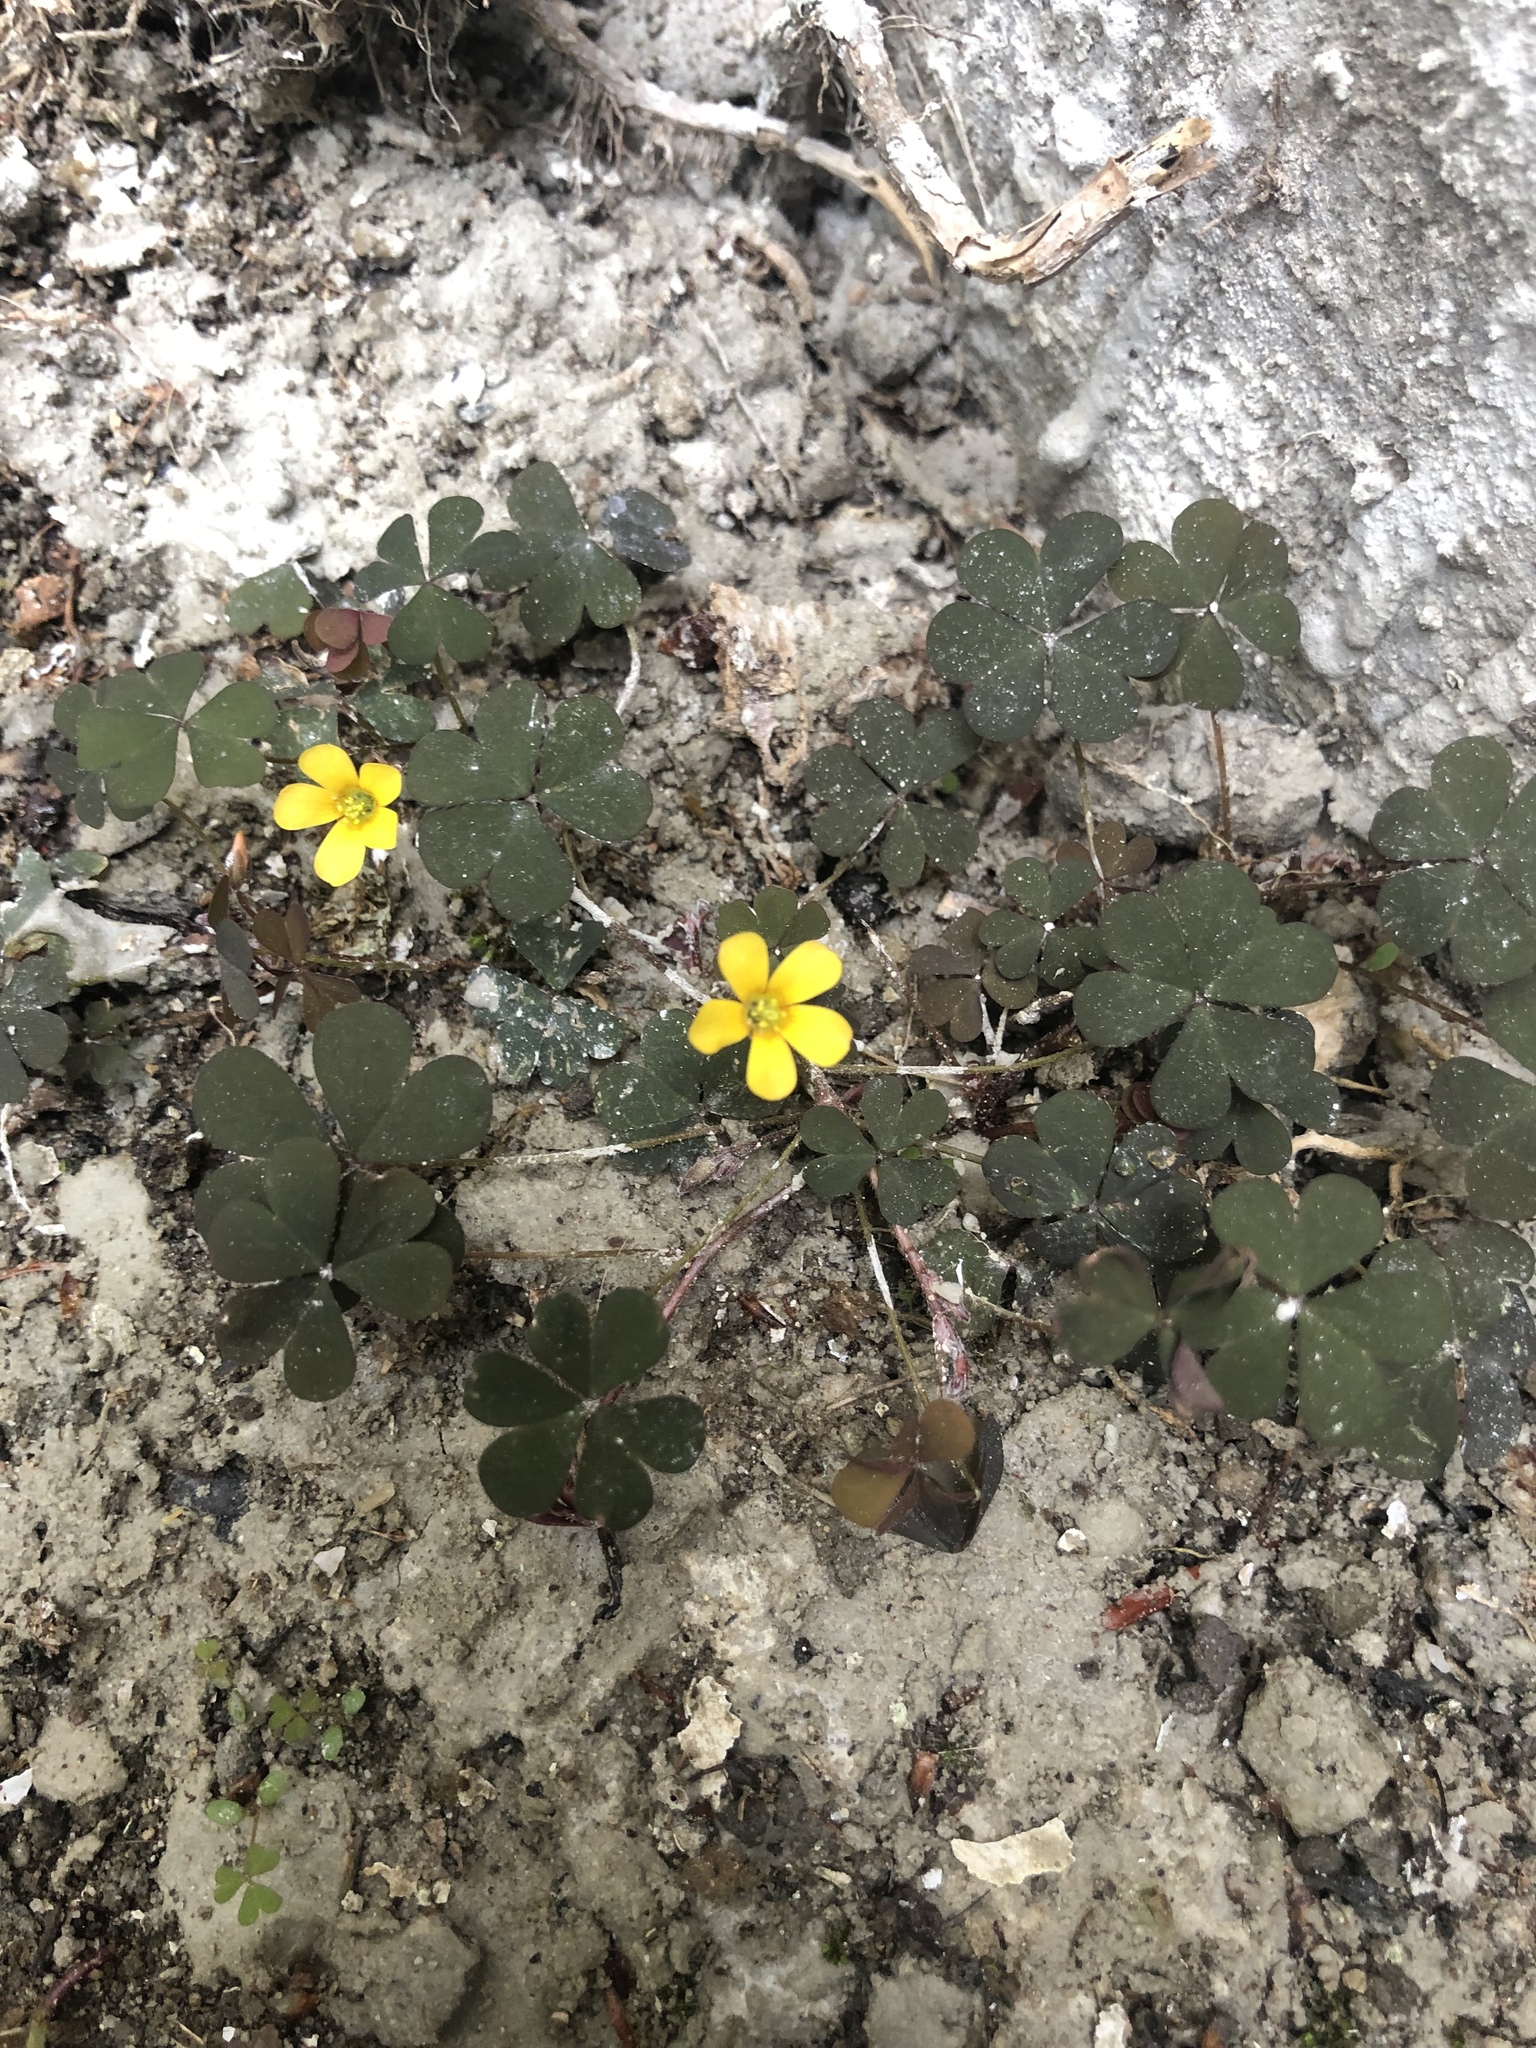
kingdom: Plantae
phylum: Tracheophyta
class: Magnoliopsida
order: Oxalidales
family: Oxalidaceae
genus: Oxalis
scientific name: Oxalis corniculata
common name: Procumbent yellow-sorrel
